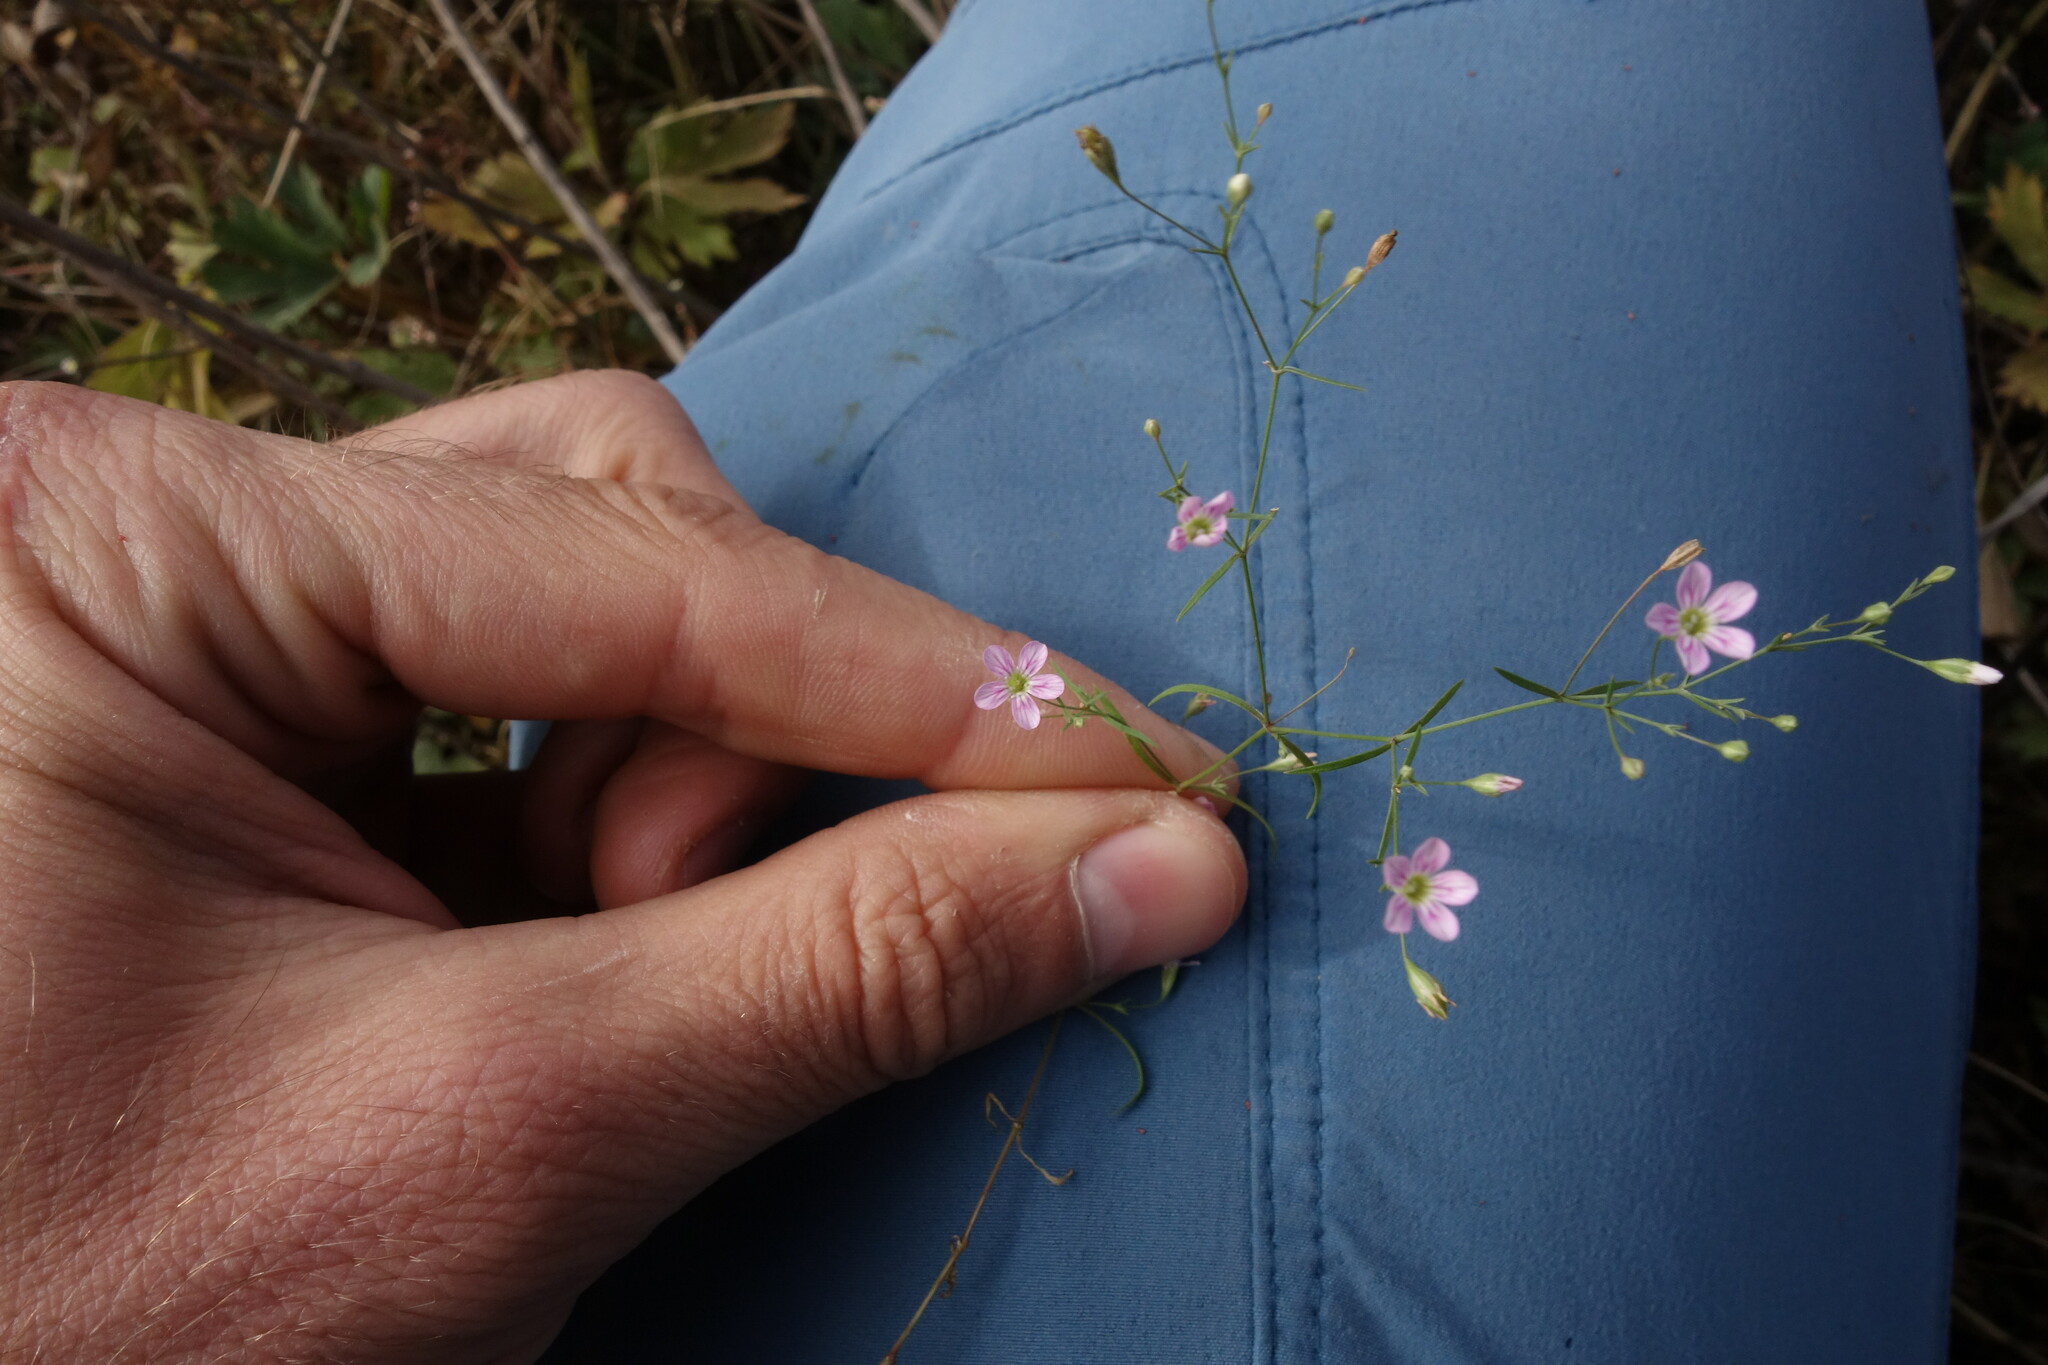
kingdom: Plantae
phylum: Tracheophyta
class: Magnoliopsida
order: Caryophyllales
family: Caryophyllaceae
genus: Psammophiliella
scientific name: Psammophiliella muralis
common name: Cushion baby's-breath
